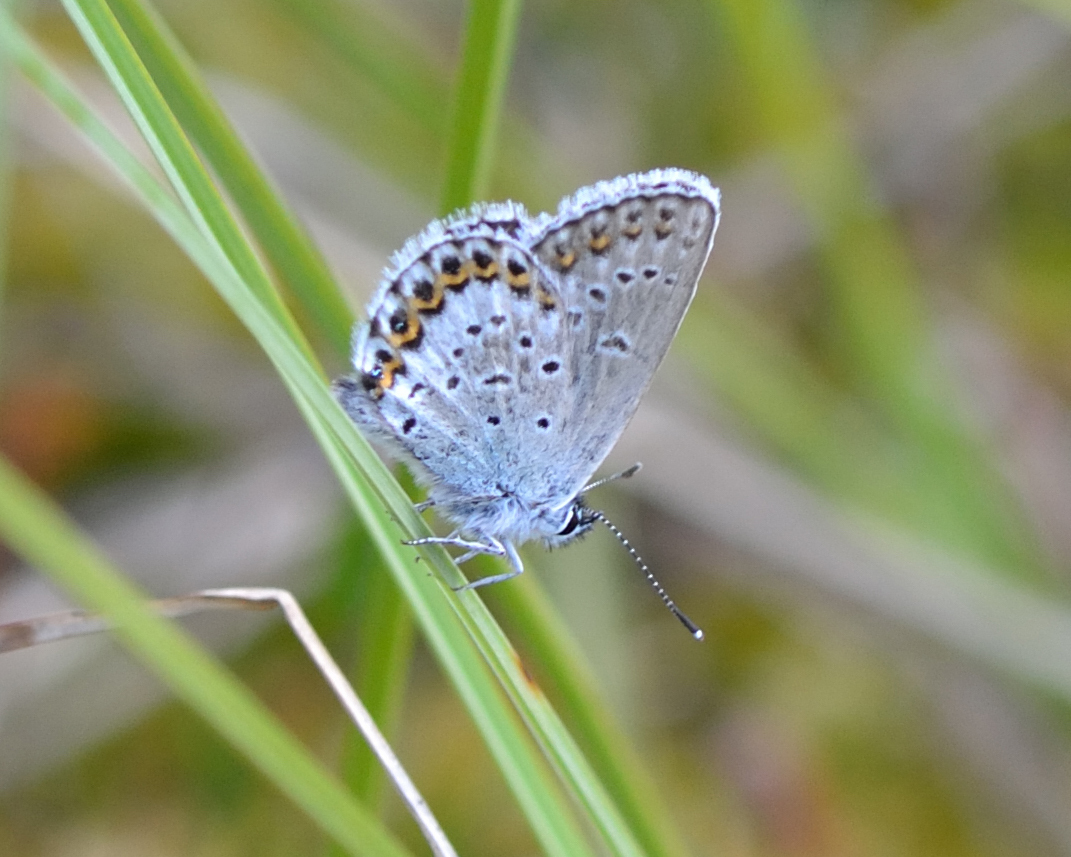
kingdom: Animalia
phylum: Arthropoda
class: Insecta
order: Lepidoptera
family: Lycaenidae
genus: Lycaeides
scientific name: Lycaeides idas
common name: Northern blue
